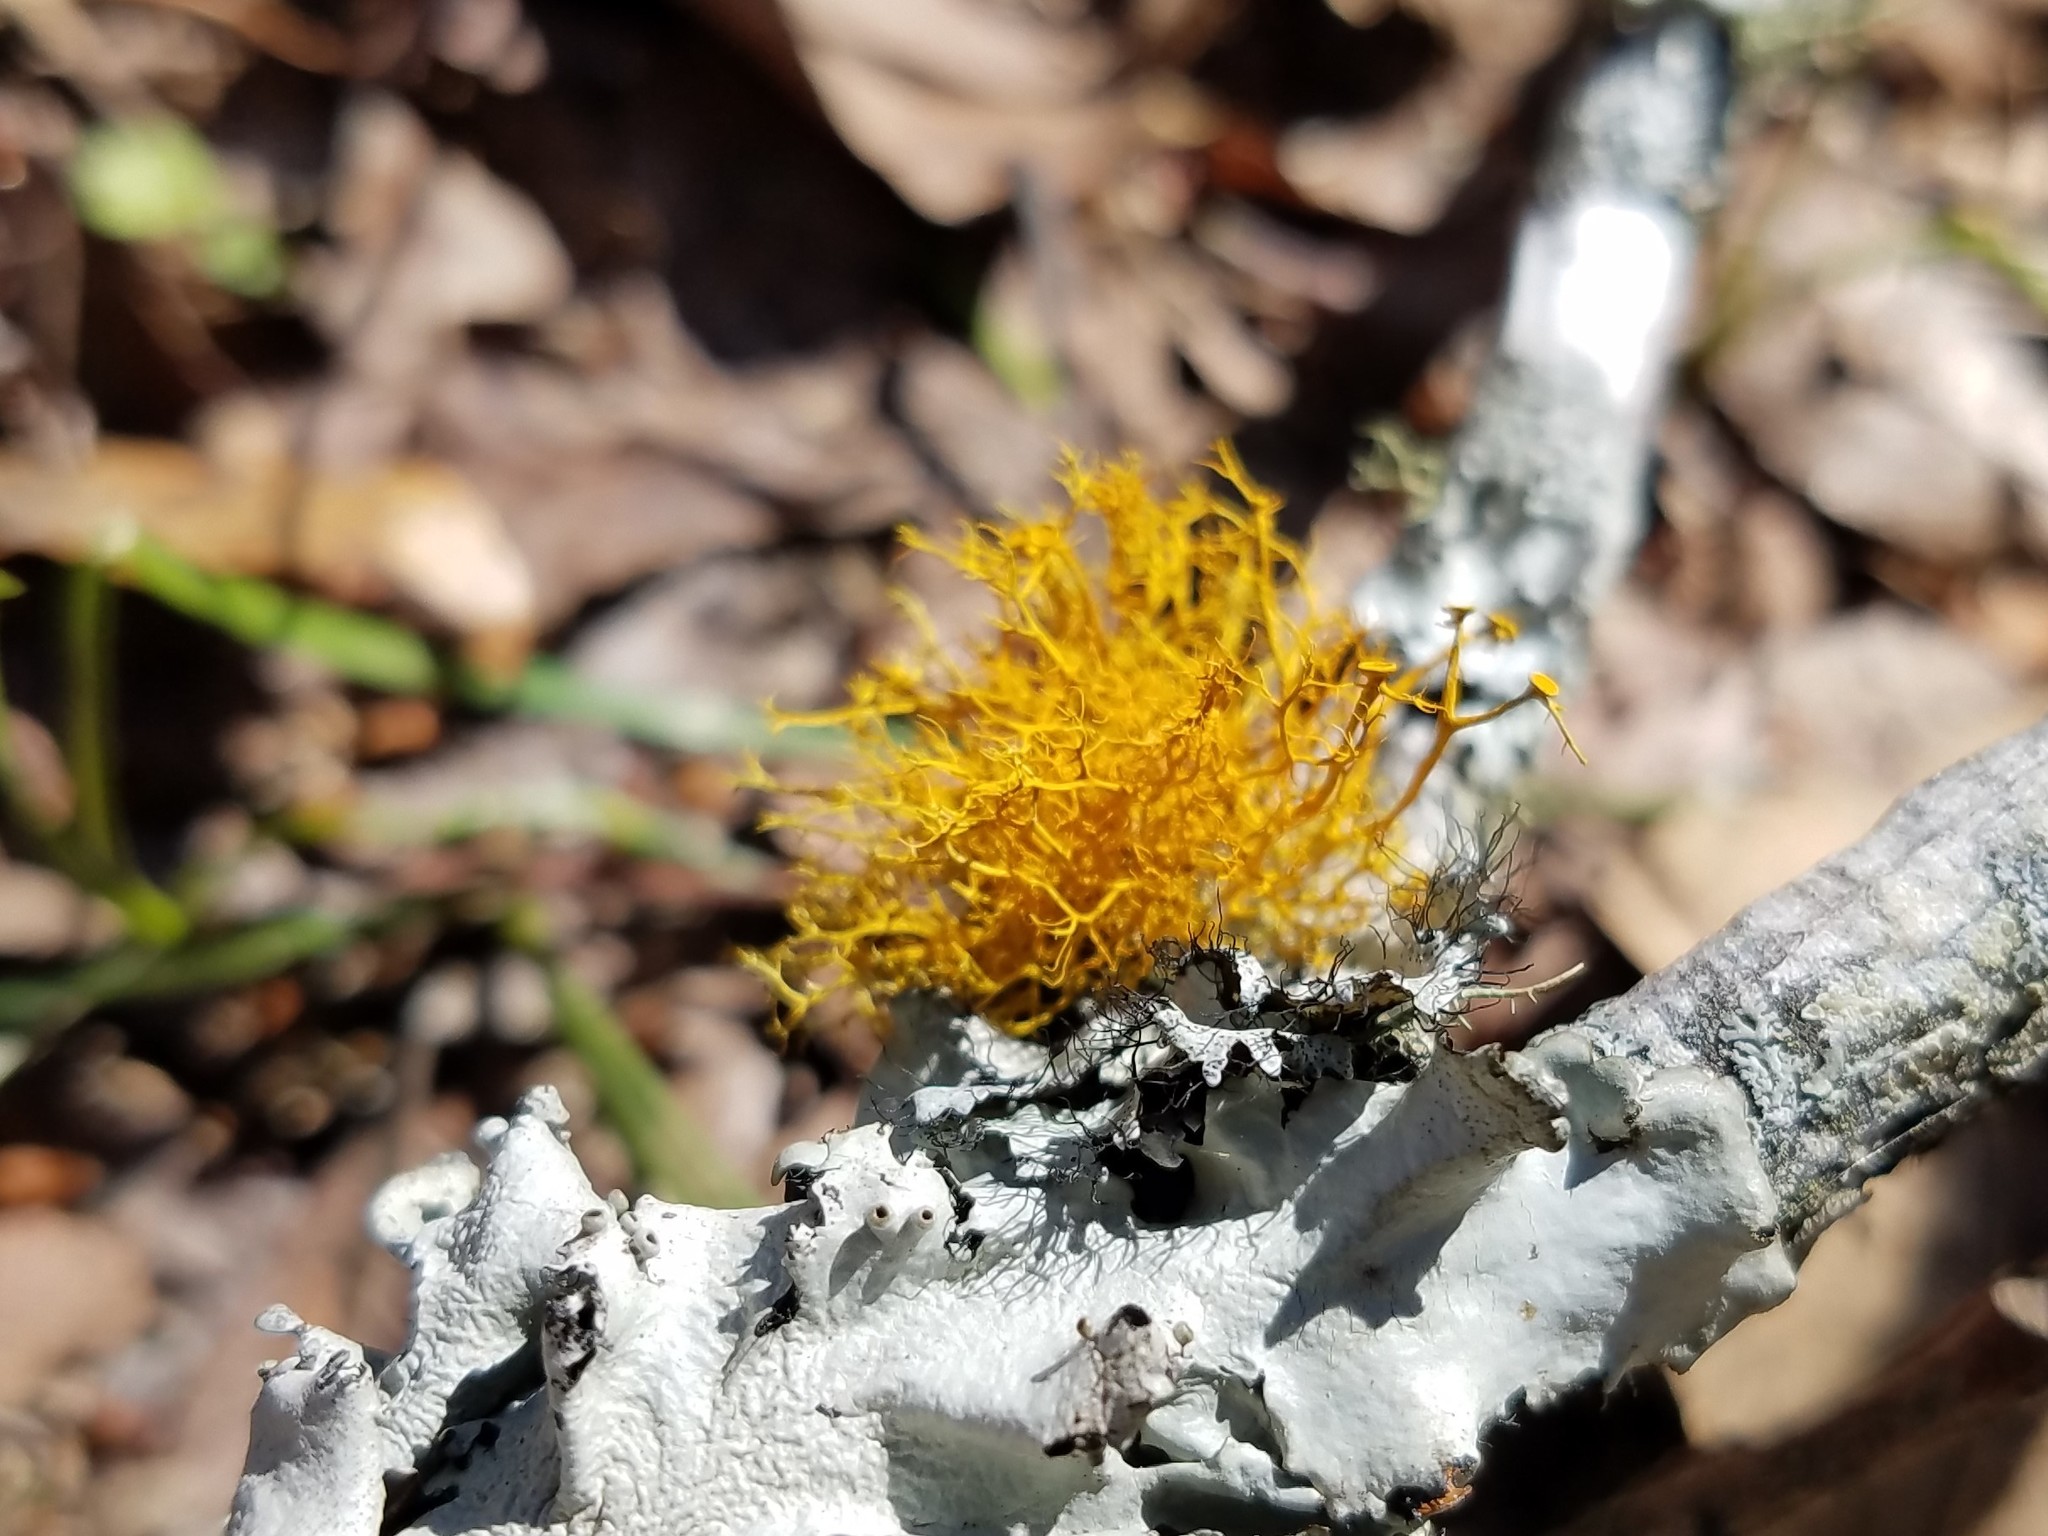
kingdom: Fungi
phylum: Ascomycota
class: Lecanoromycetes
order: Teloschistales
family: Teloschistaceae
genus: Teloschistes
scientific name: Teloschistes exilis
